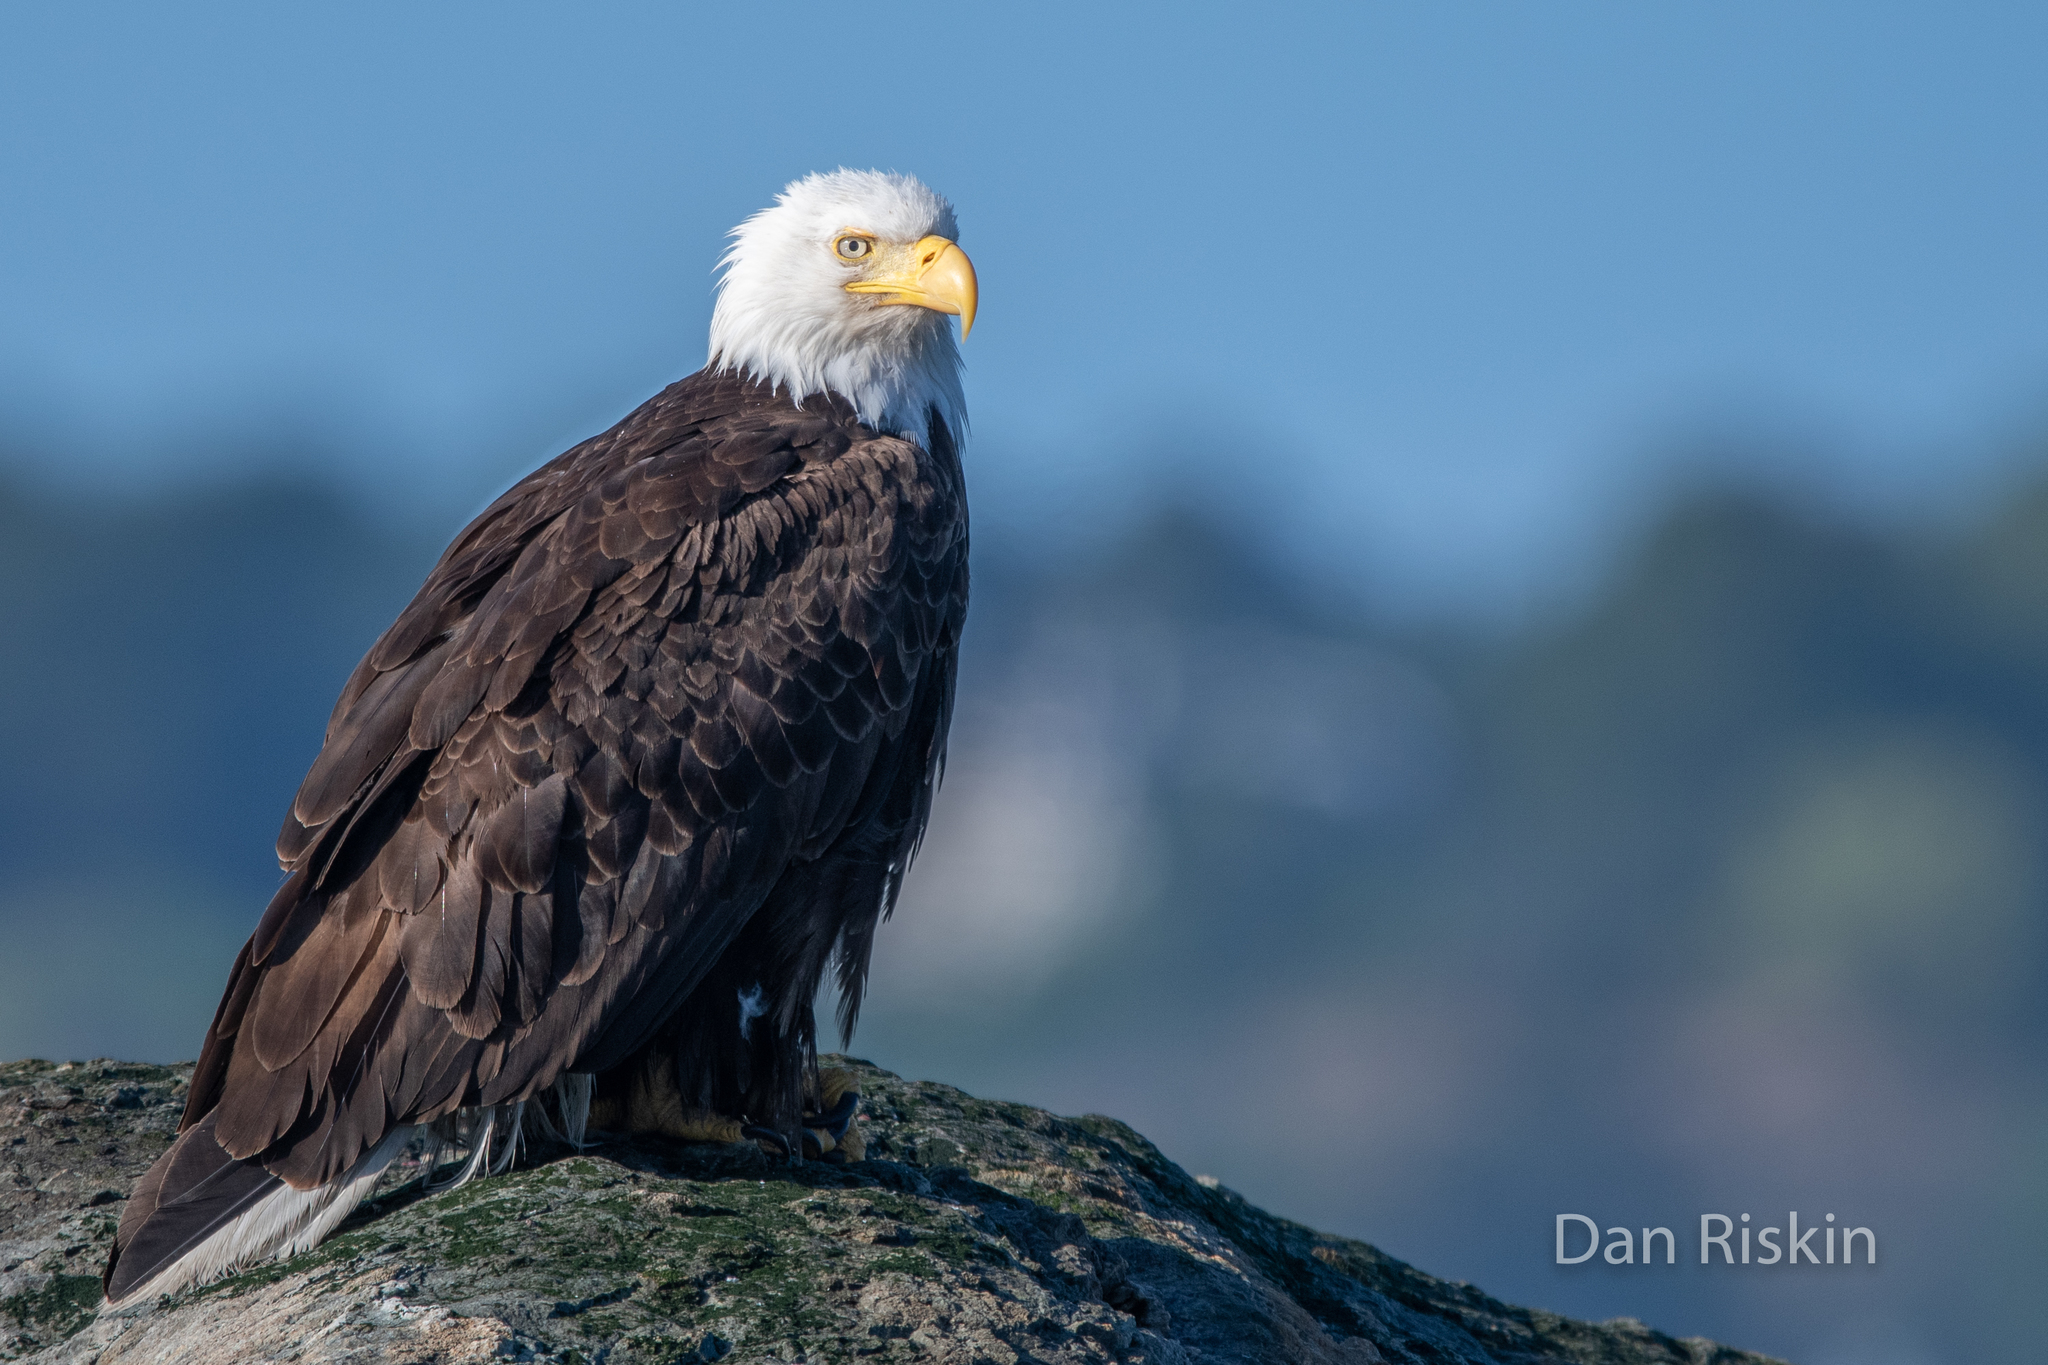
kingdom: Animalia
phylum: Chordata
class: Aves
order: Accipitriformes
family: Accipitridae
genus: Haliaeetus
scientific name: Haliaeetus leucocephalus
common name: Bald eagle
